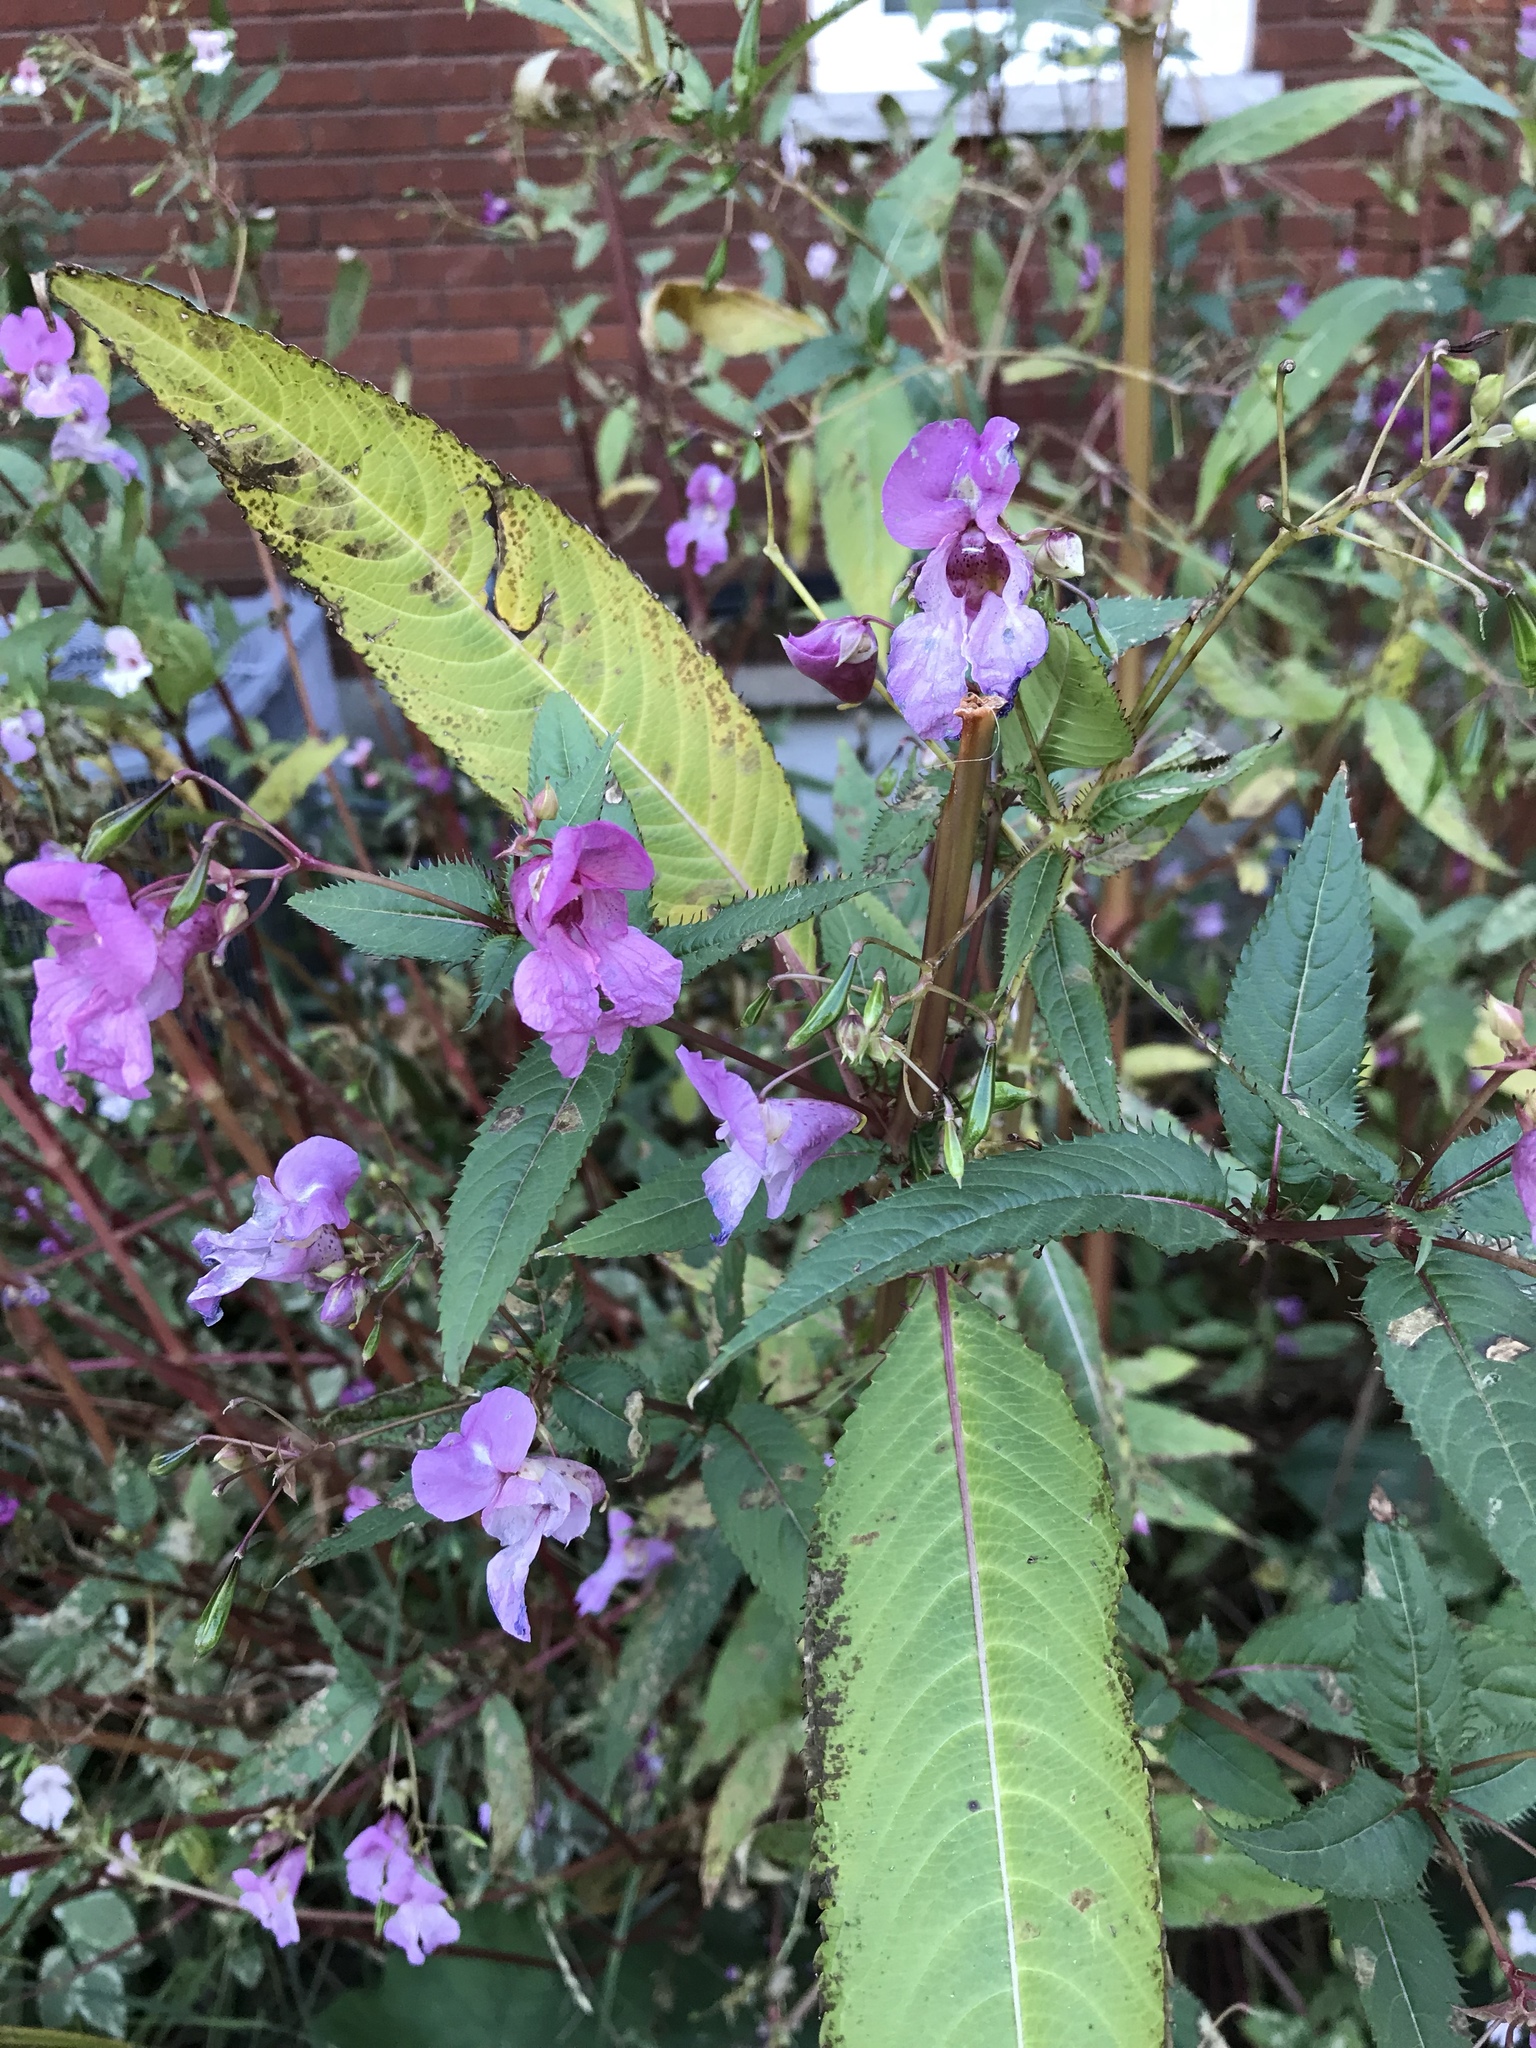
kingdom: Plantae
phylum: Tracheophyta
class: Magnoliopsida
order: Ericales
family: Balsaminaceae
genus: Impatiens
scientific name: Impatiens glandulifera
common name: Himalayan balsam
